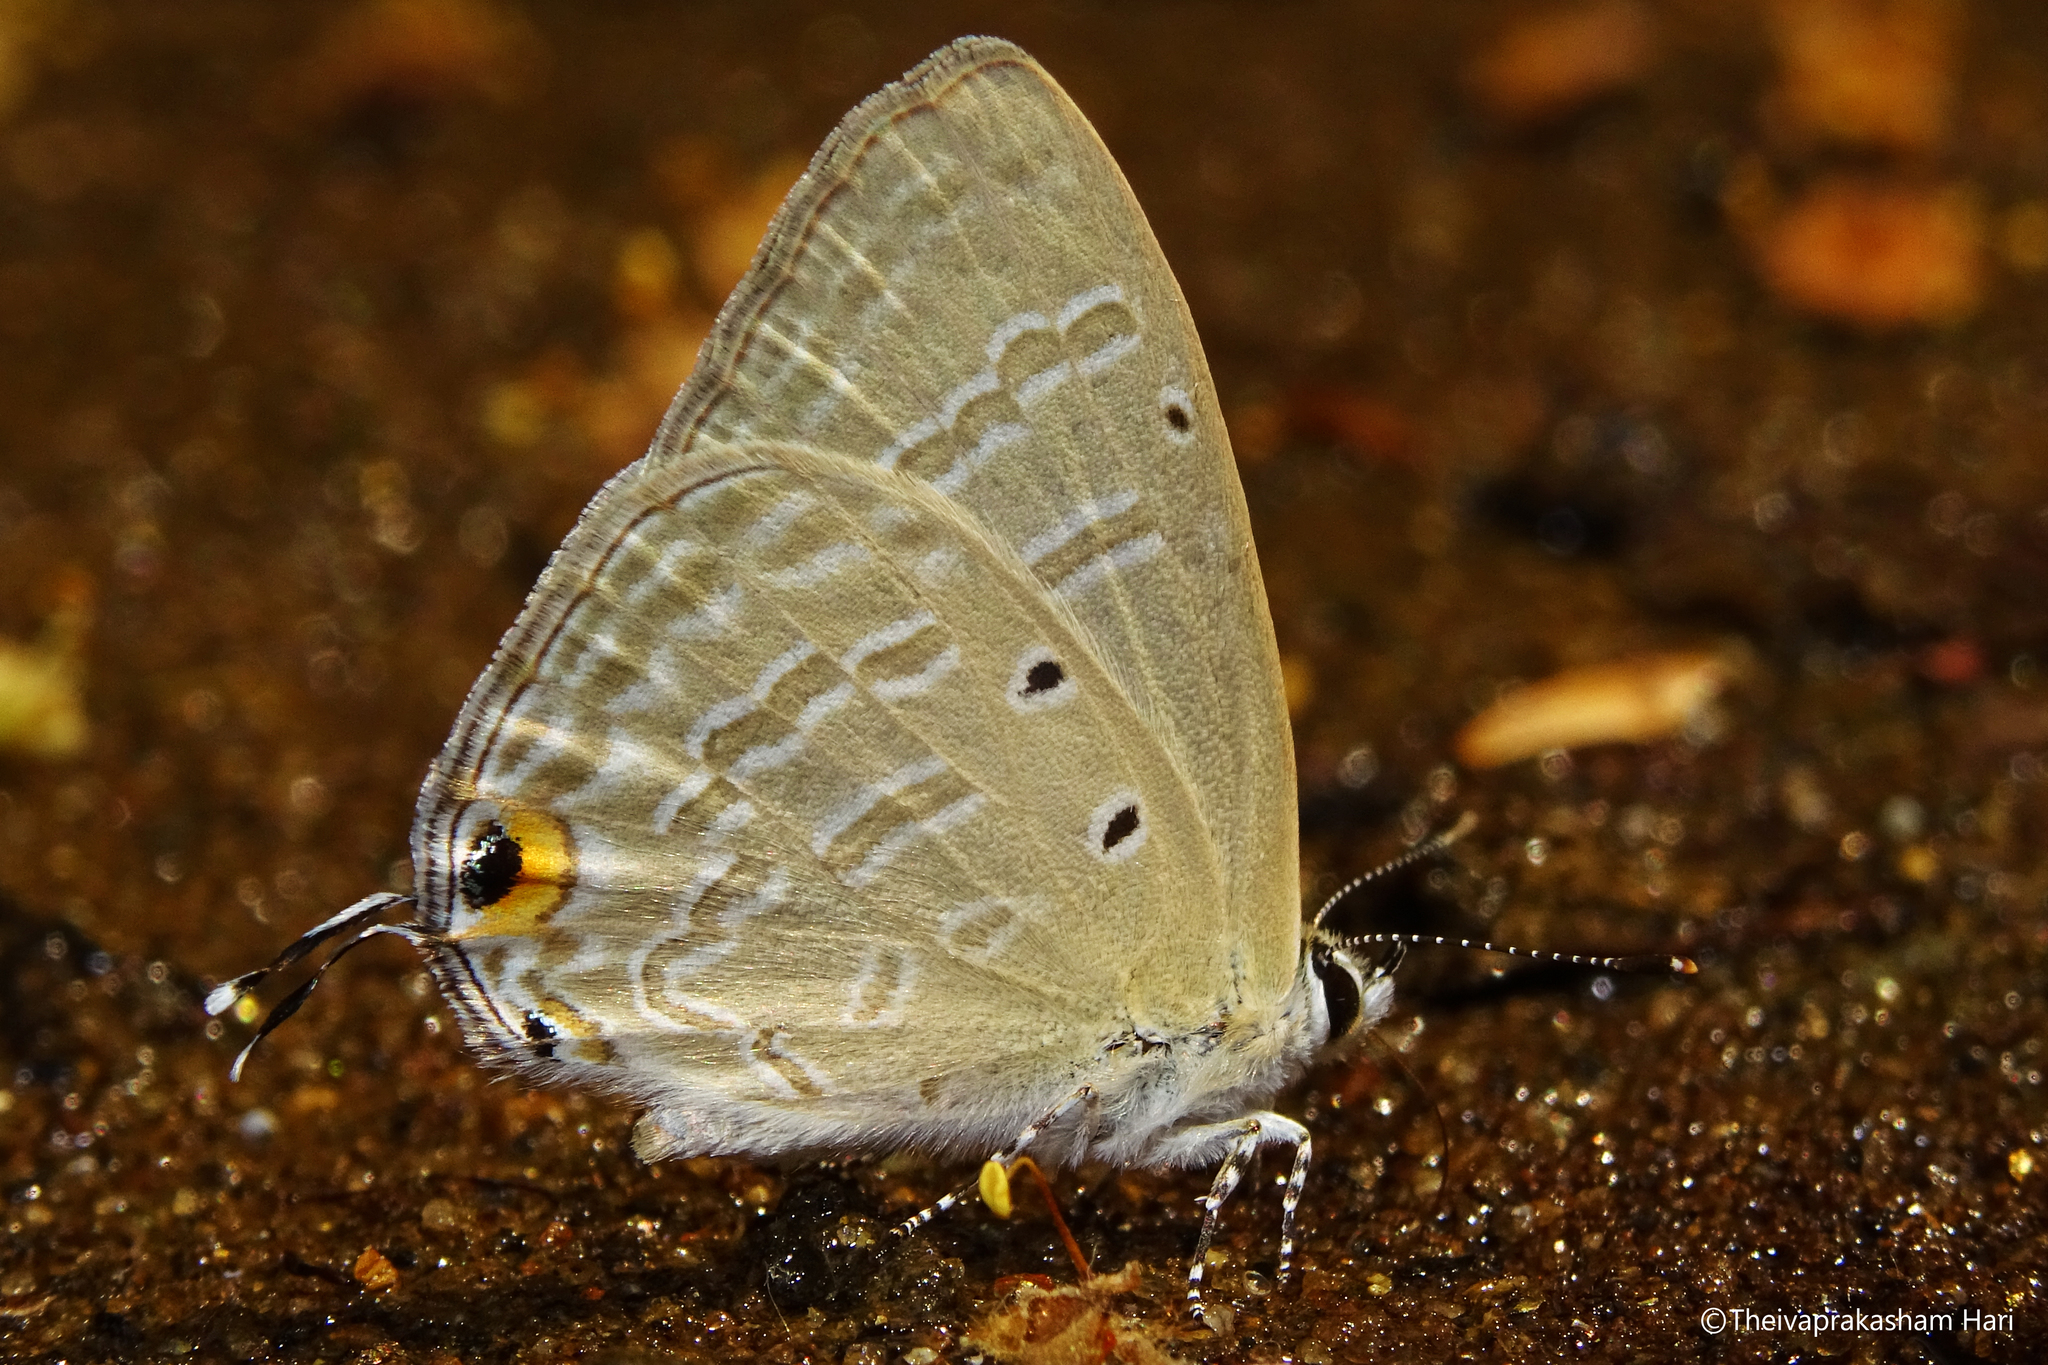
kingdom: Animalia
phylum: Arthropoda
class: Insecta
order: Lepidoptera
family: Lycaenidae
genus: Catochrysops
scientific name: Catochrysops strabo
